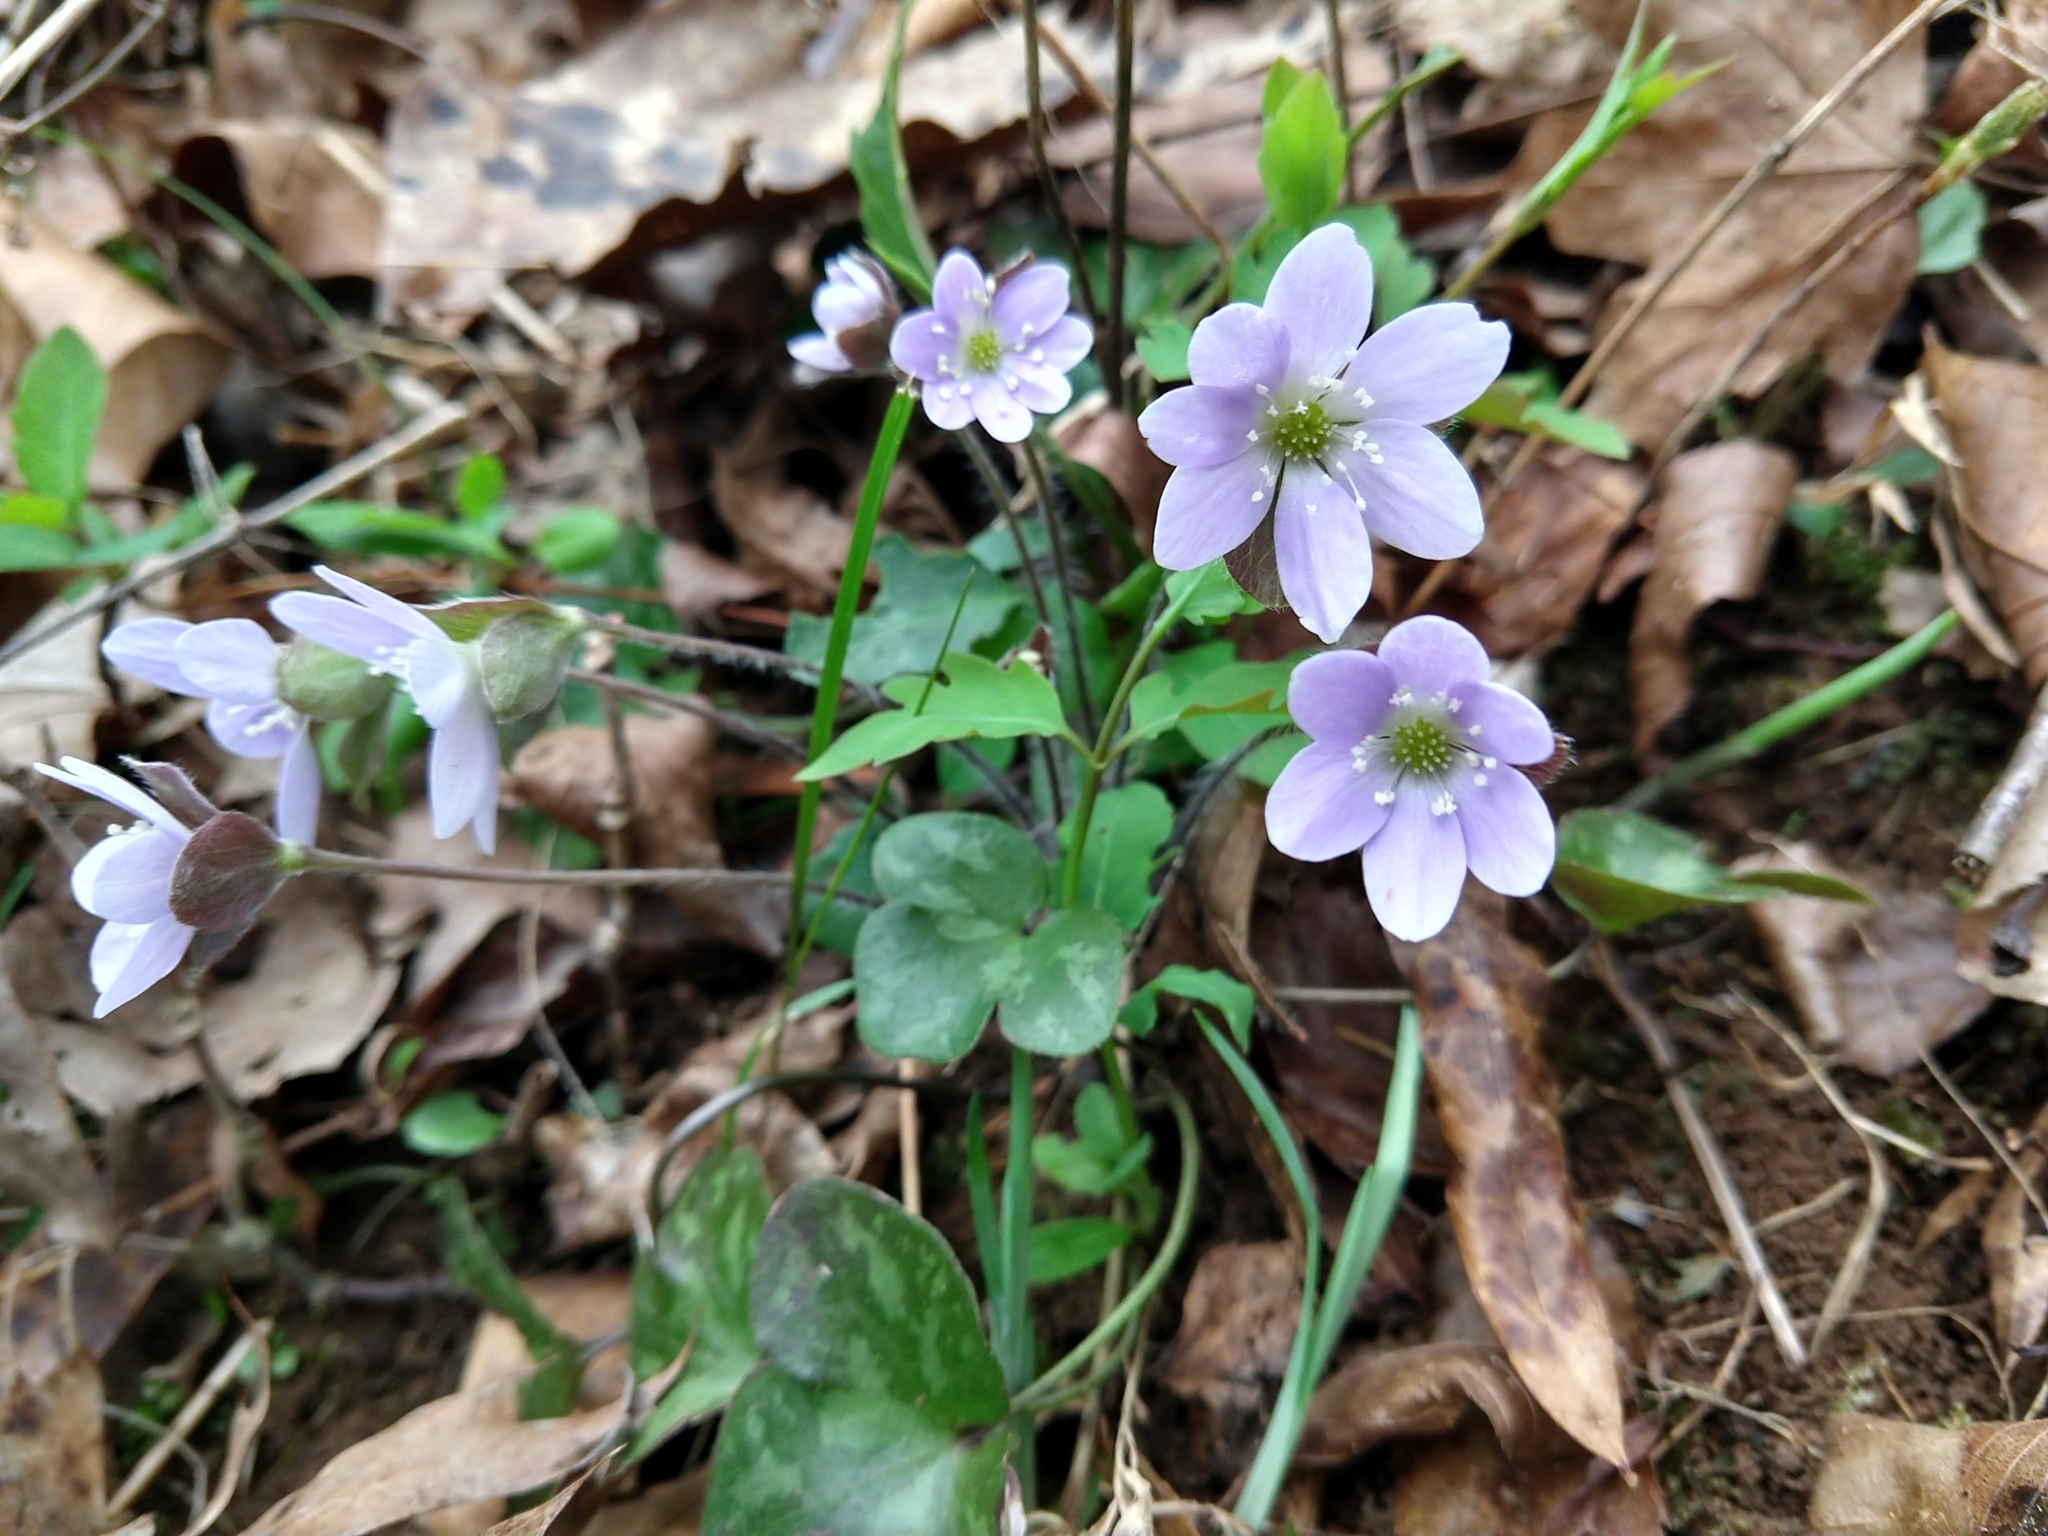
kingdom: Plantae
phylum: Tracheophyta
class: Magnoliopsida
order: Ranunculales
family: Ranunculaceae
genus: Hepatica
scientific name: Hepatica americana
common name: American hepatica
